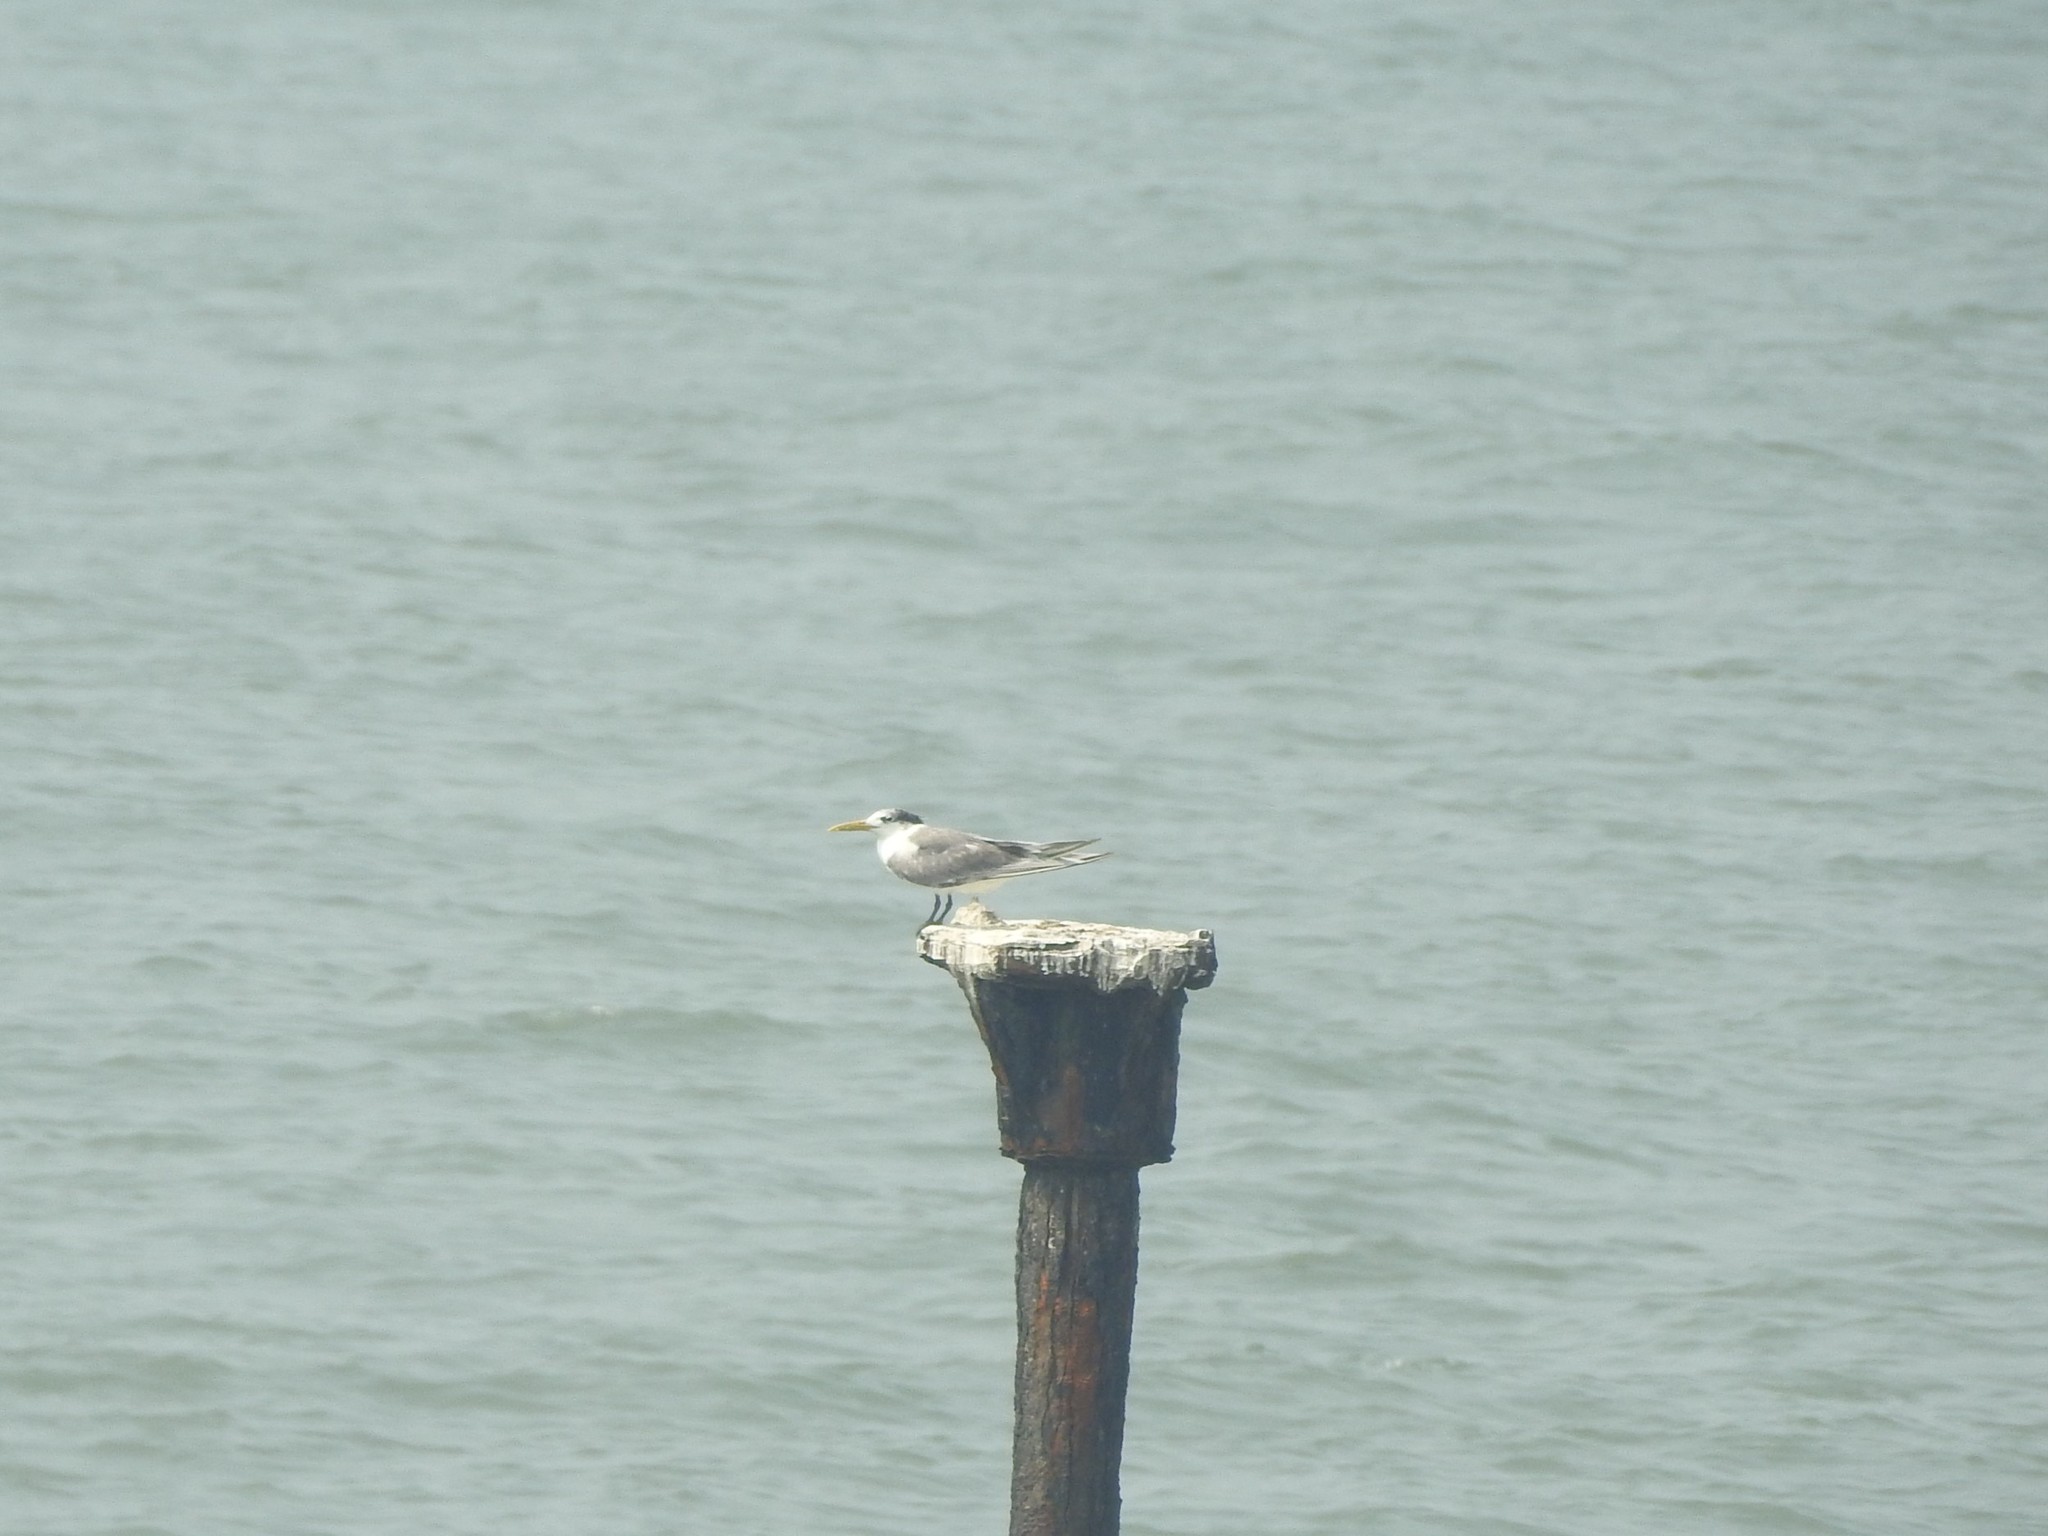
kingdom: Animalia
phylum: Chordata
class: Aves
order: Charadriiformes
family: Laridae
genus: Thalasseus
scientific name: Thalasseus bergii
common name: Greater crested tern
